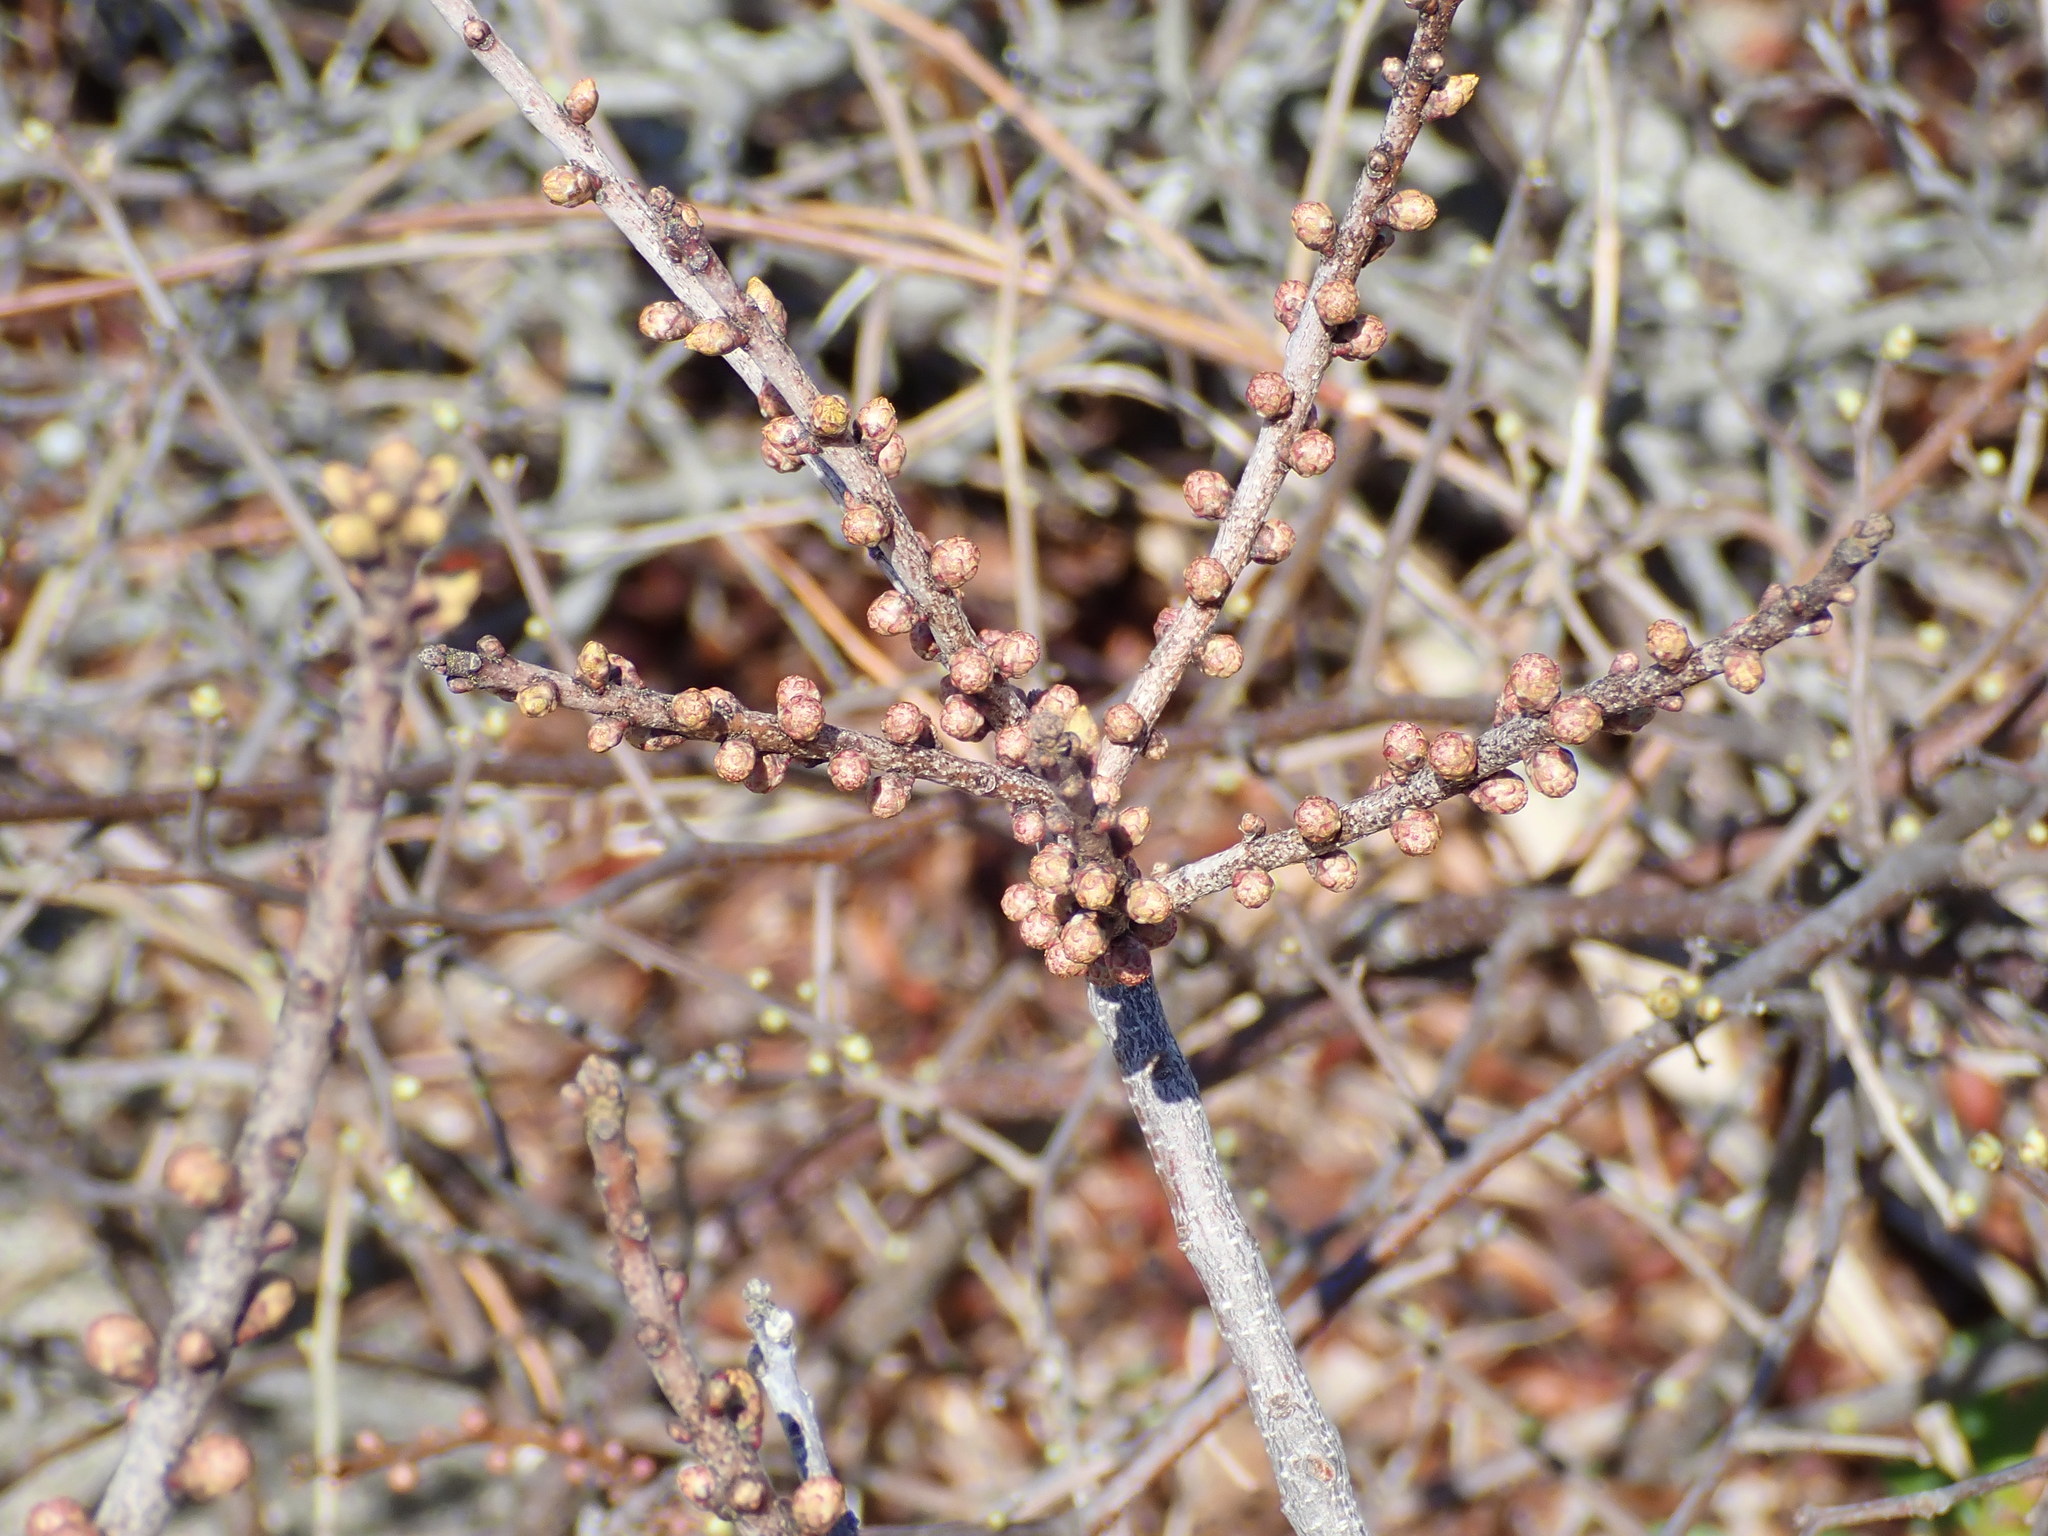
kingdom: Plantae
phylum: Tracheophyta
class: Magnoliopsida
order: Fagales
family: Myricaceae
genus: Morella
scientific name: Morella pensylvanica
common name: Northern bayberry
